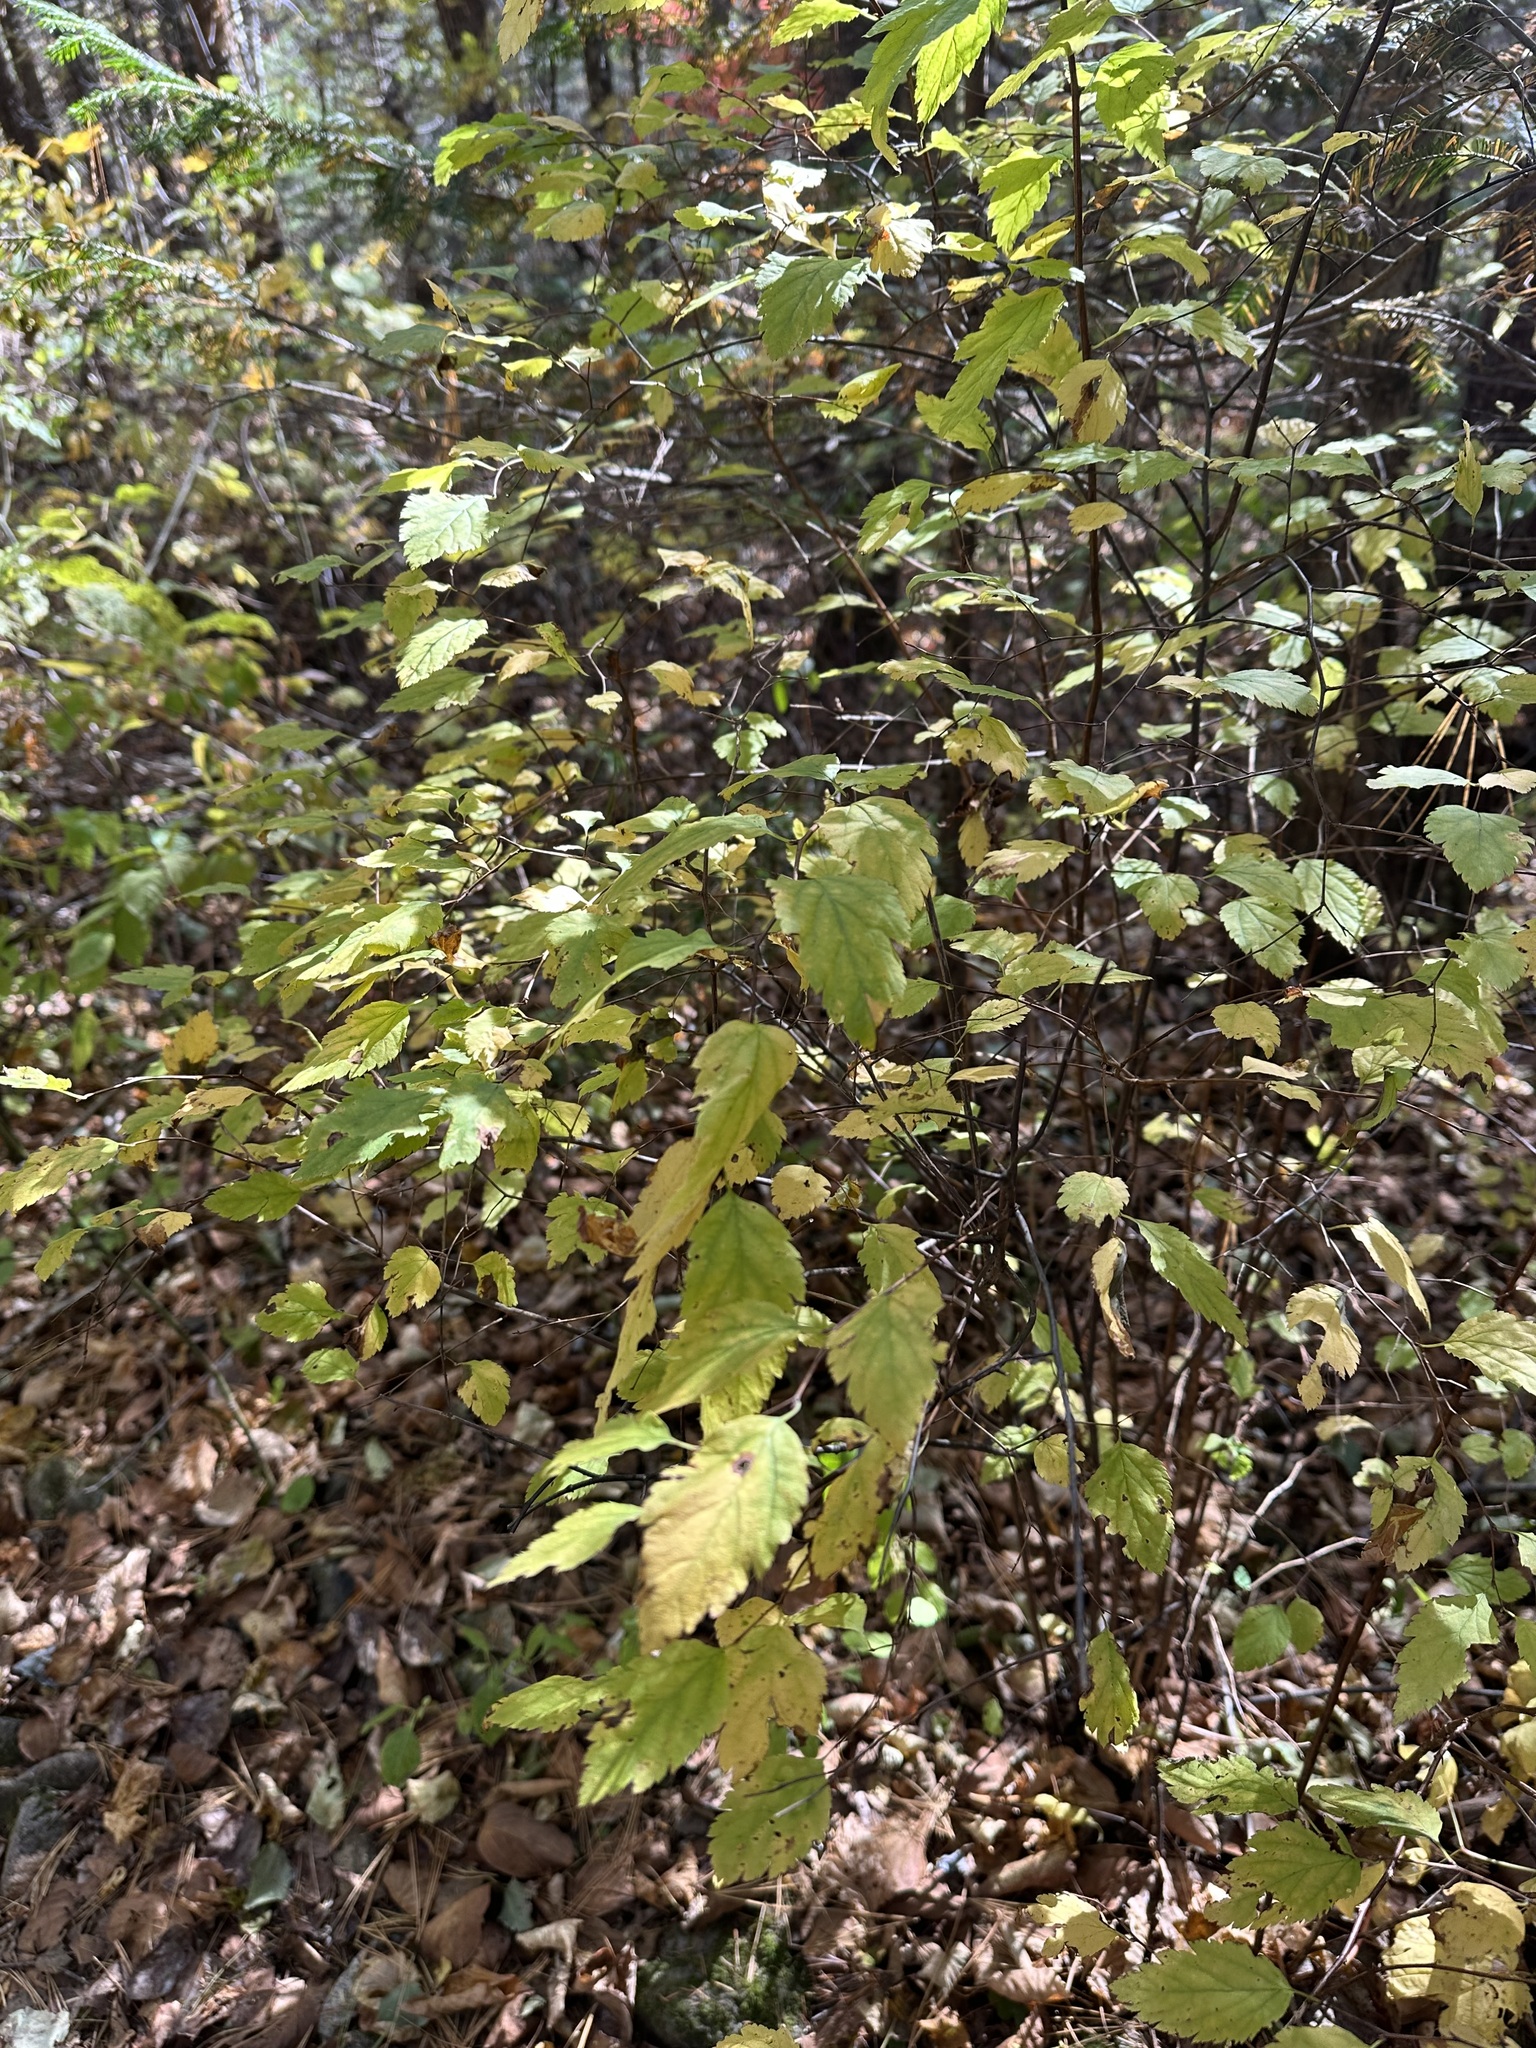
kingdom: Plantae
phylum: Tracheophyta
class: Magnoliopsida
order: Rosales
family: Rosaceae
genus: Spiraea
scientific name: Spiraea flexuosa
